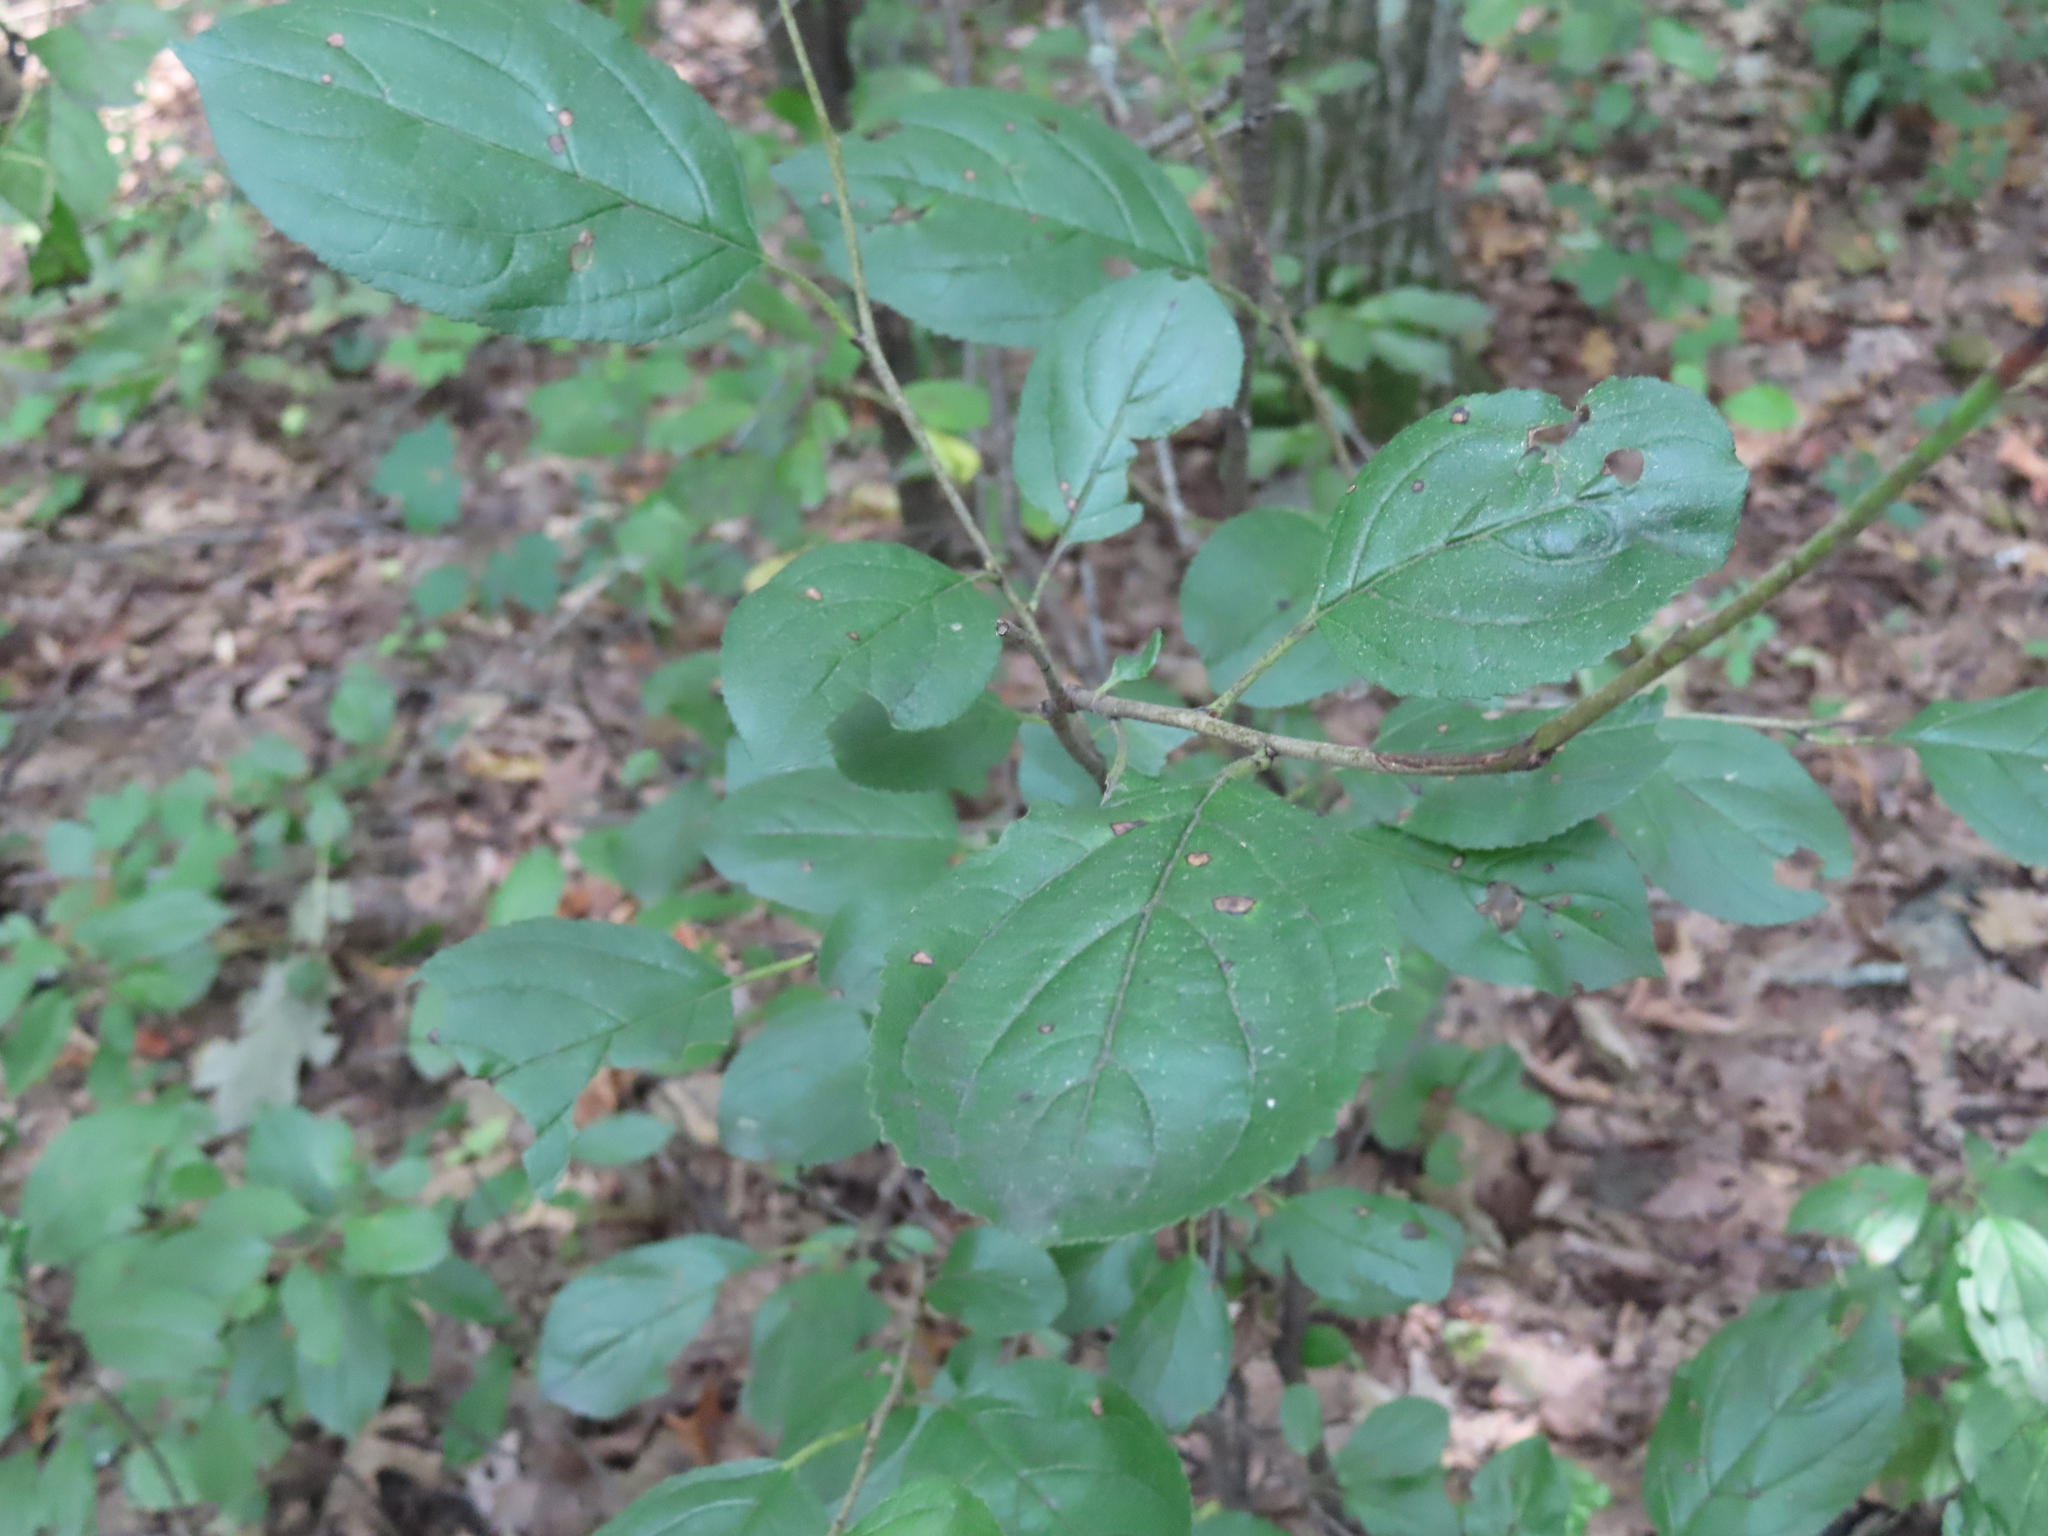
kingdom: Plantae
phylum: Tracheophyta
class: Magnoliopsida
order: Rosales
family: Rhamnaceae
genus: Rhamnus
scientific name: Rhamnus cathartica
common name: Common buckthorn
